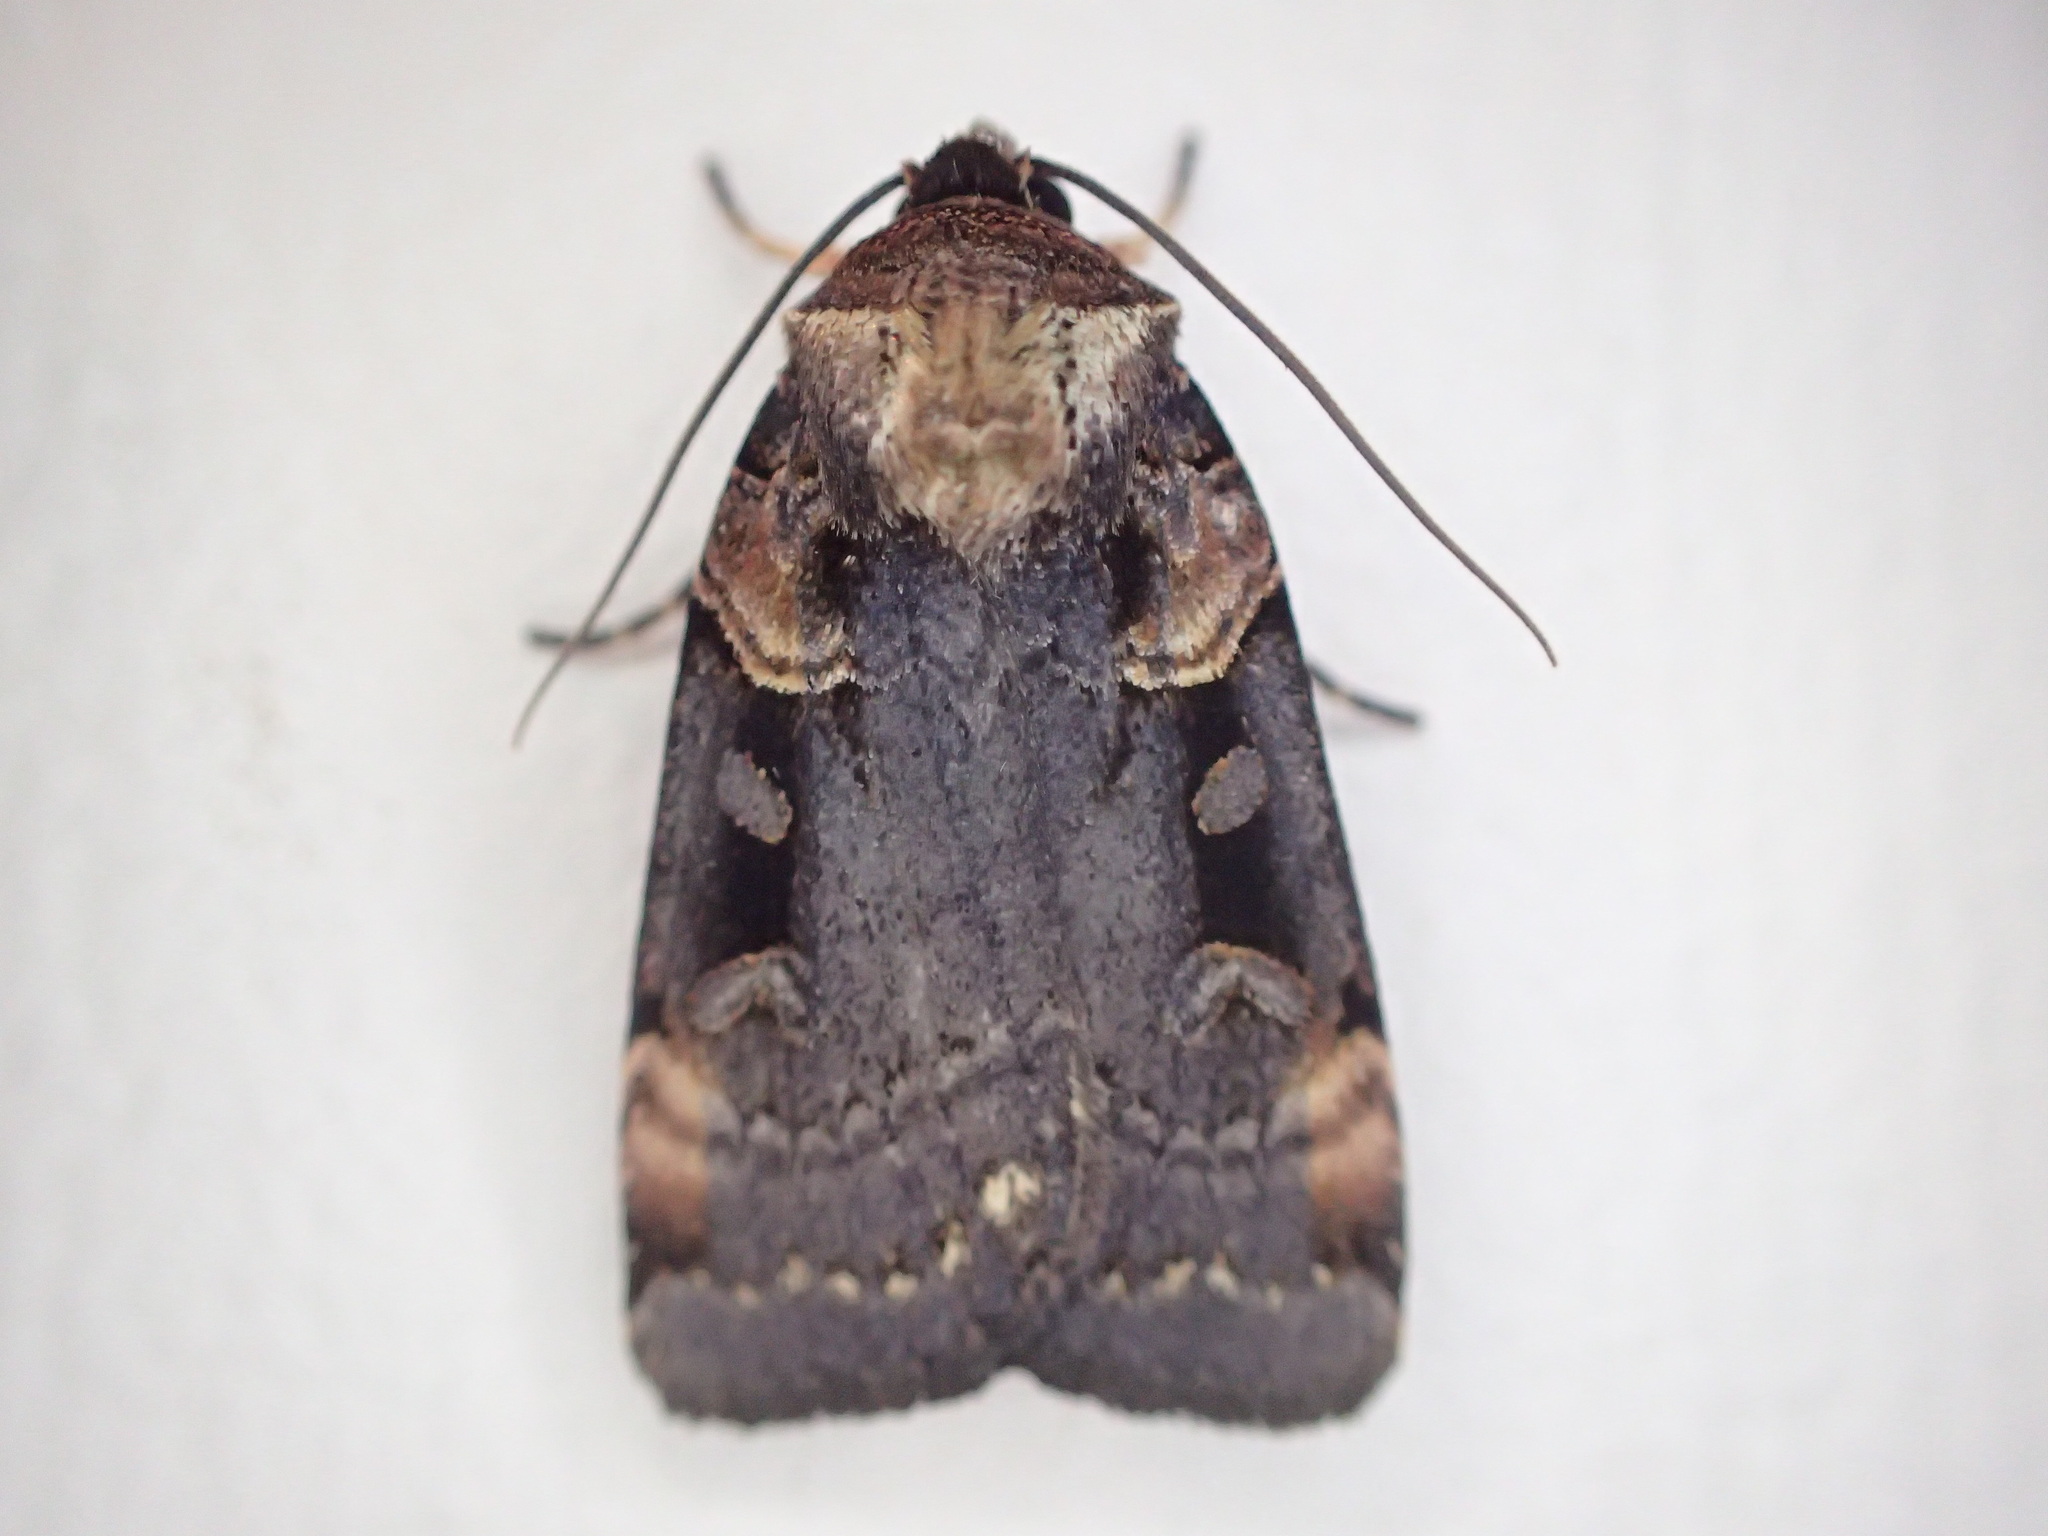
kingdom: Animalia
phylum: Arthropoda
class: Insecta
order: Lepidoptera
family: Noctuidae
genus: Pseudohermonassa
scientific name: Pseudohermonassa bicarnea
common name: Pink spotted dart
